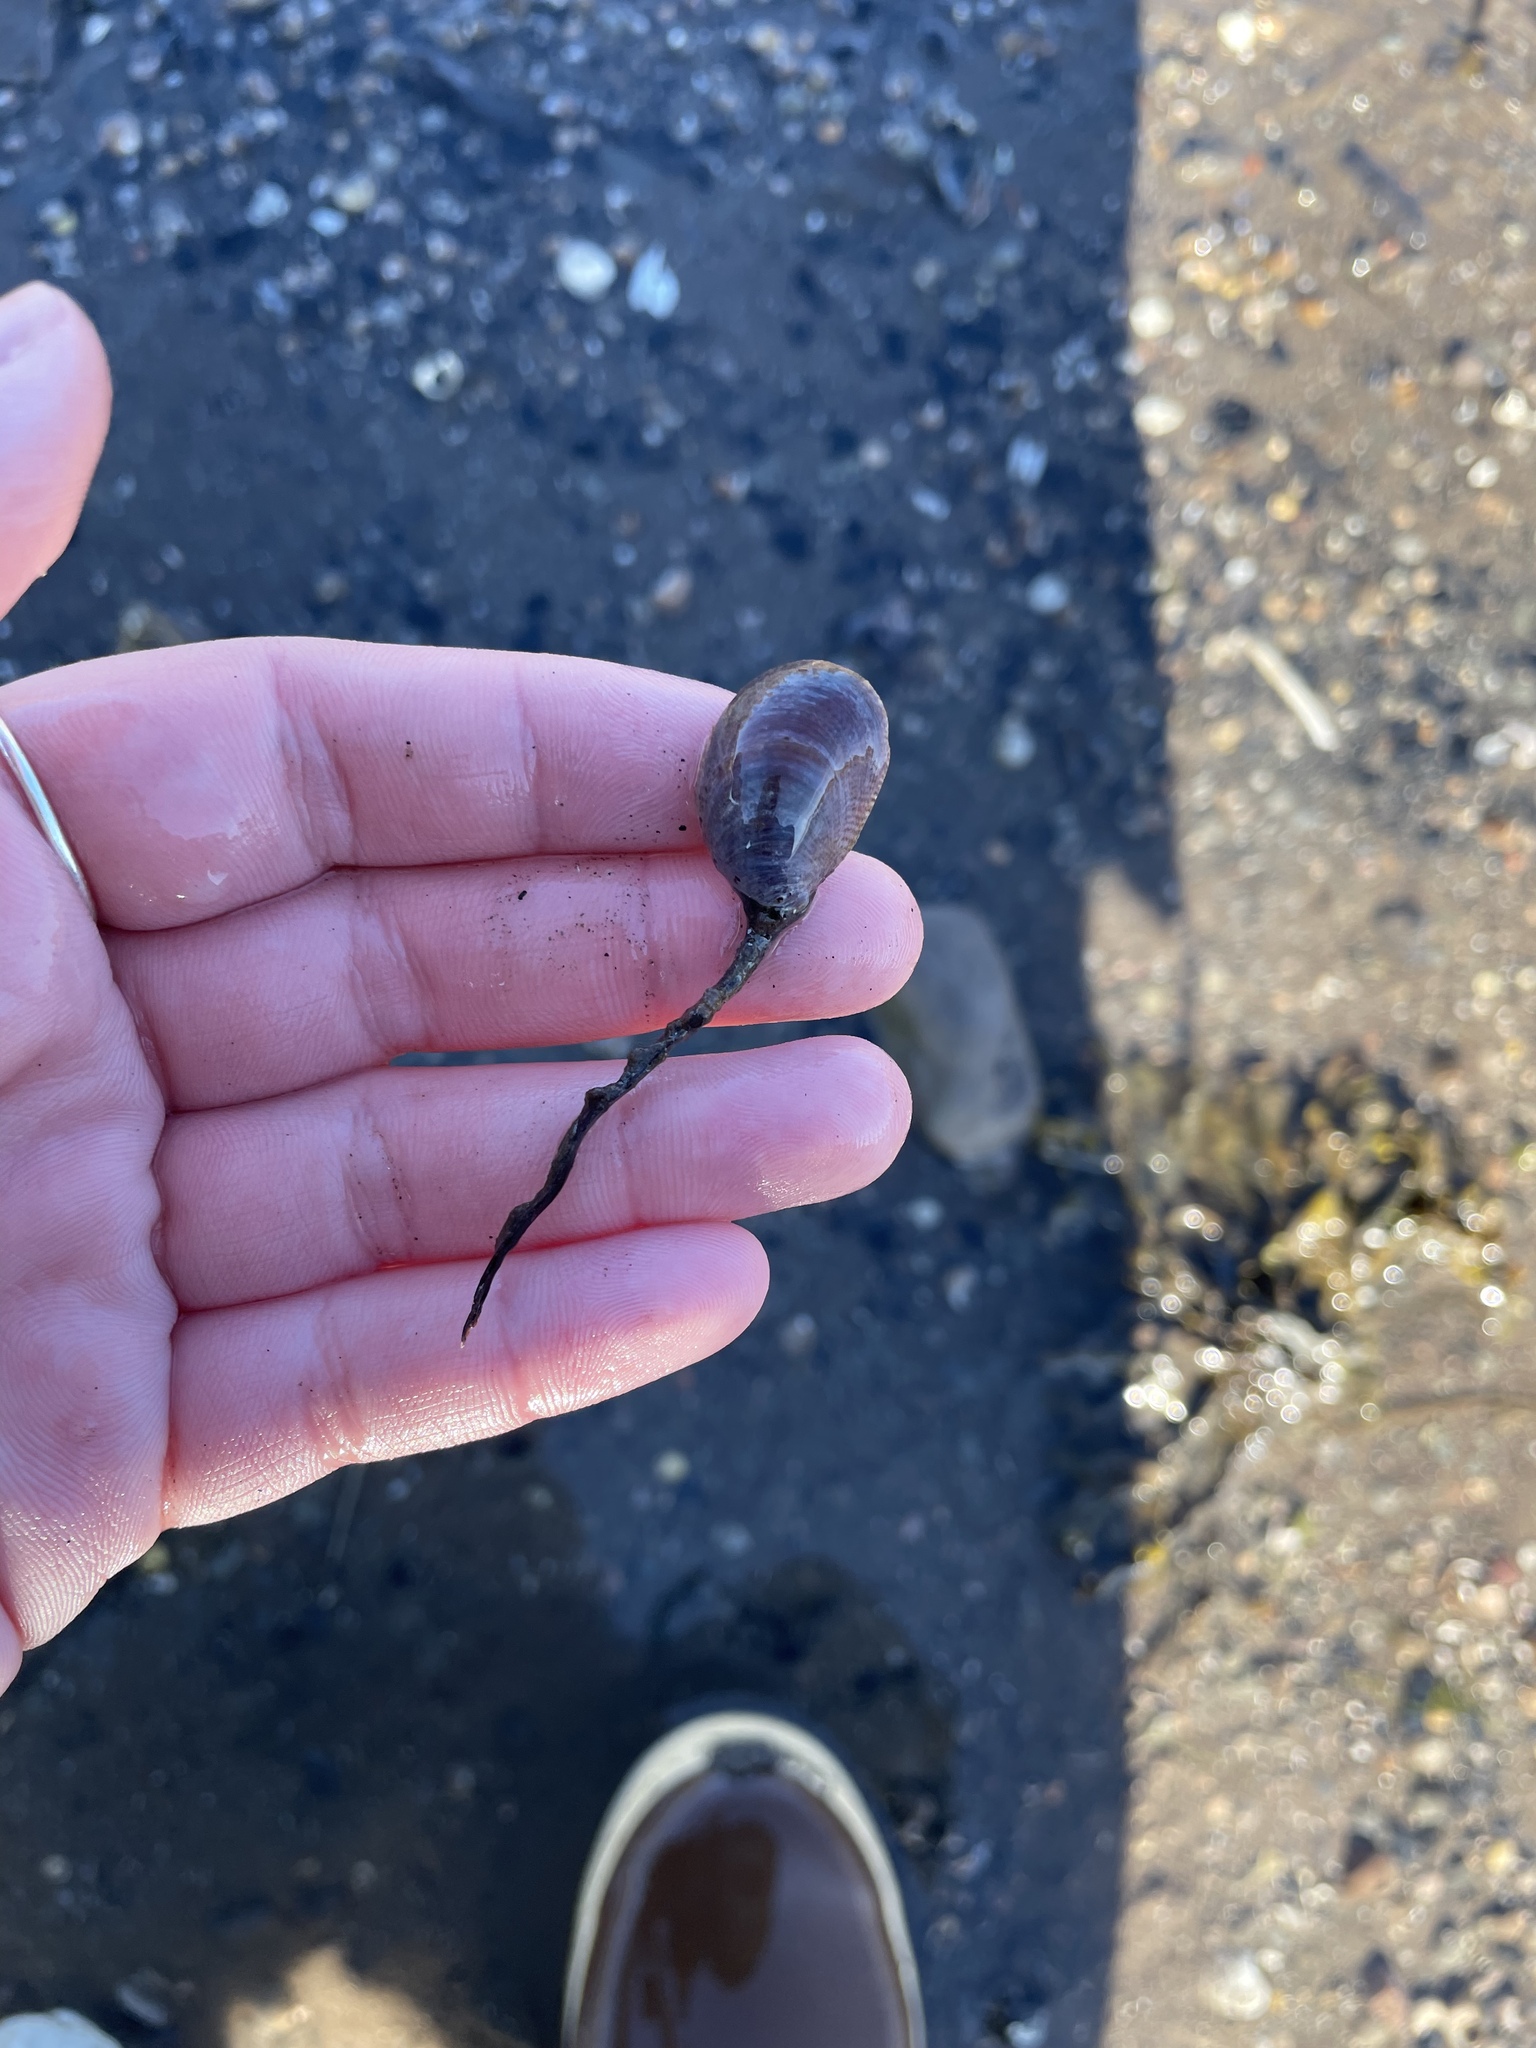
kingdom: Animalia
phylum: Mollusca
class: Gastropoda
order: Littorinimorpha
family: Calyptraeidae
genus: Crepidula
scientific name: Crepidula fornicata
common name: Slipper limpet
